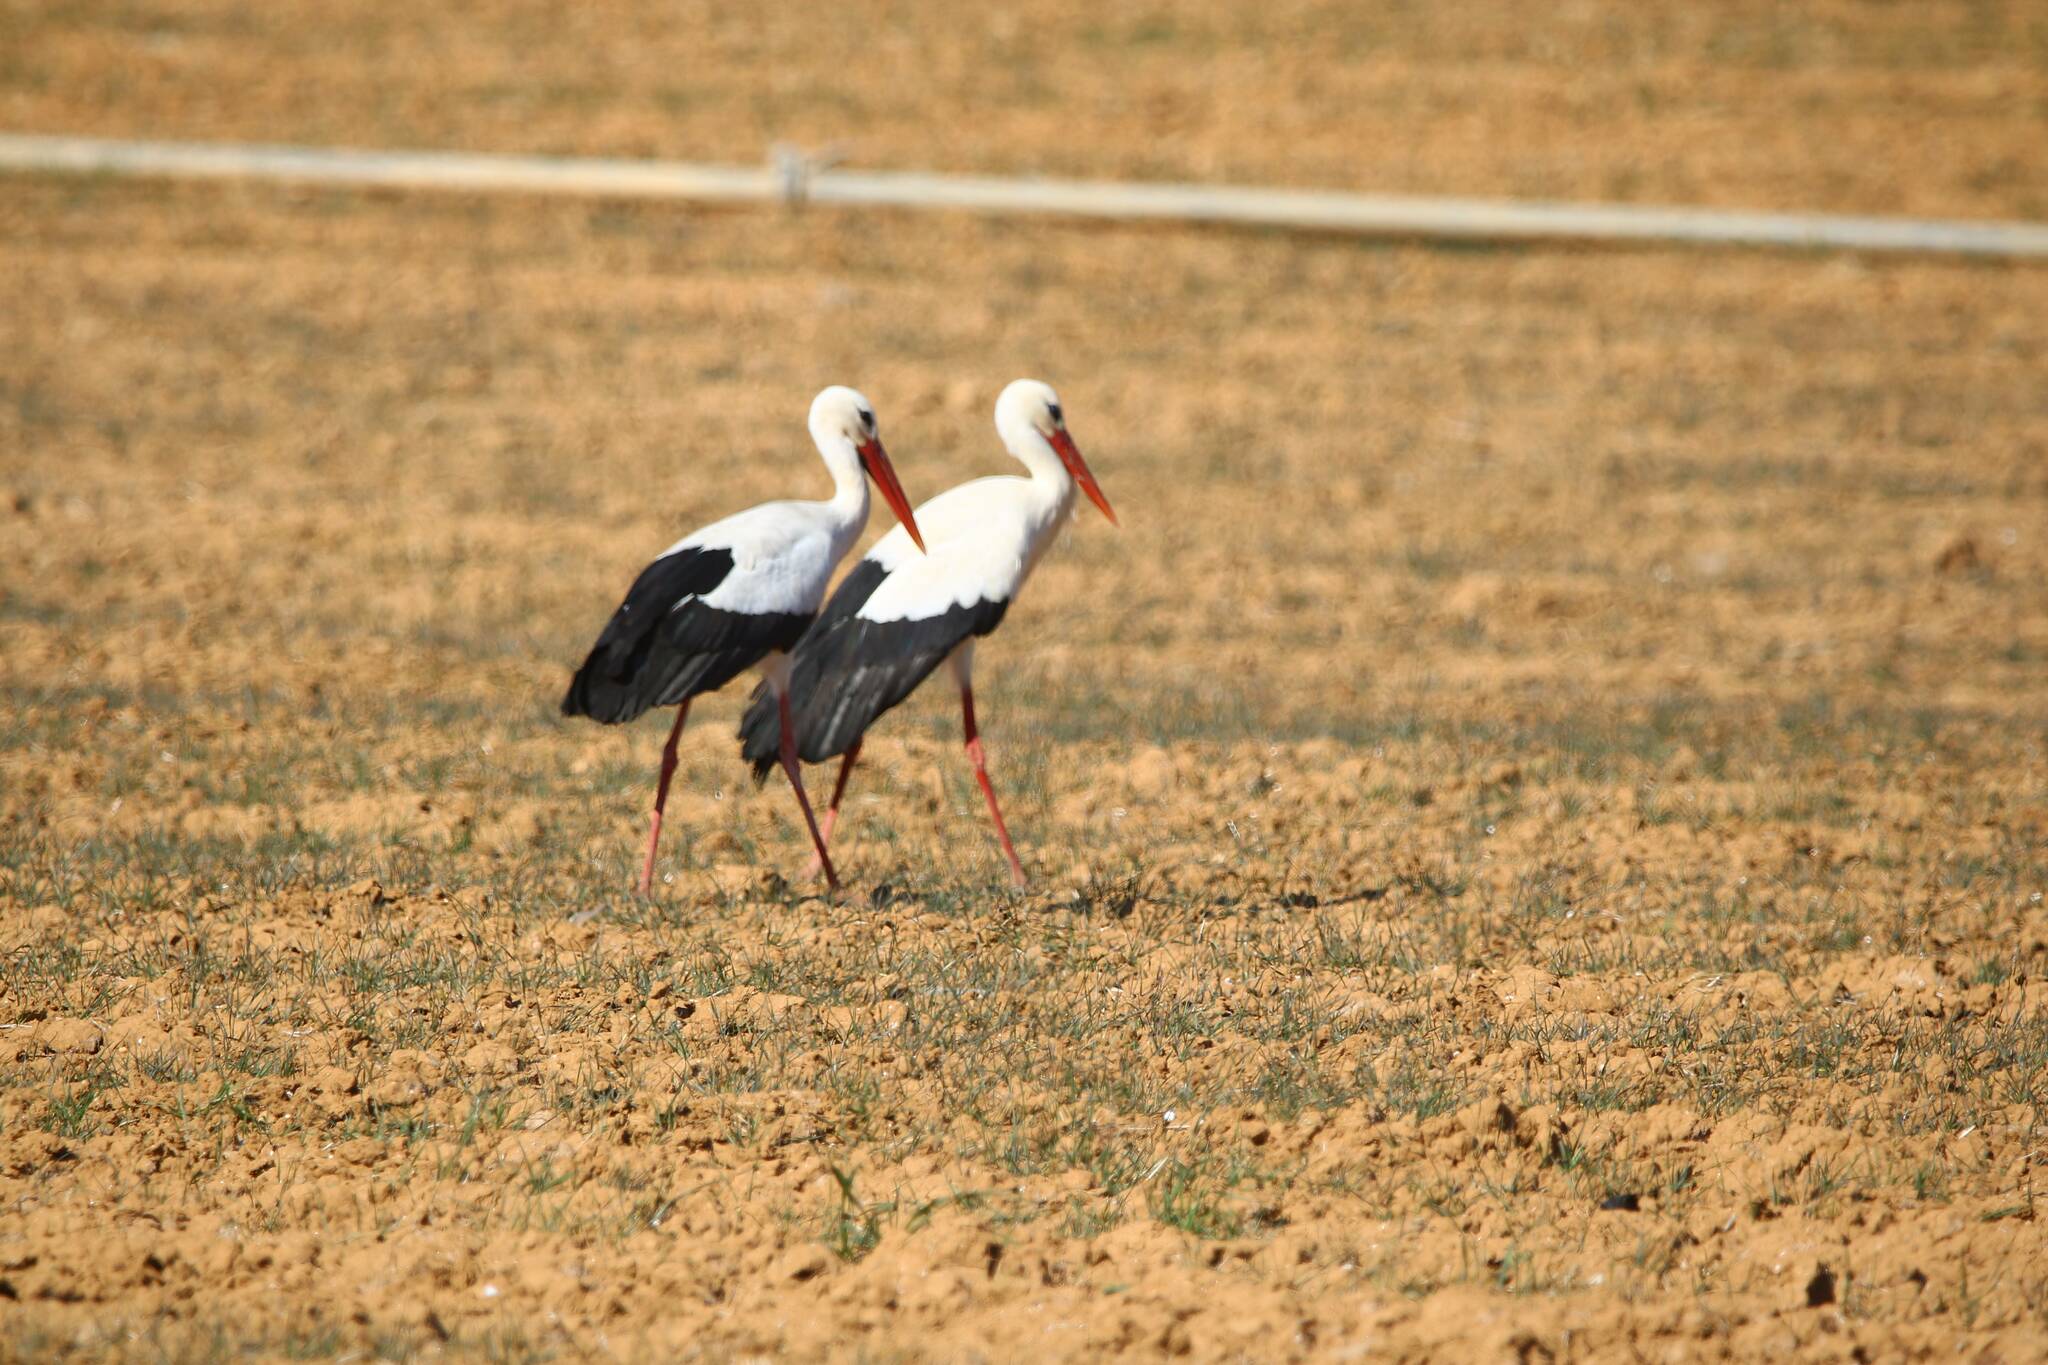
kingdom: Animalia
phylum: Chordata
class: Aves
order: Ciconiiformes
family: Ciconiidae
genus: Ciconia
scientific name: Ciconia ciconia
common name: White stork
